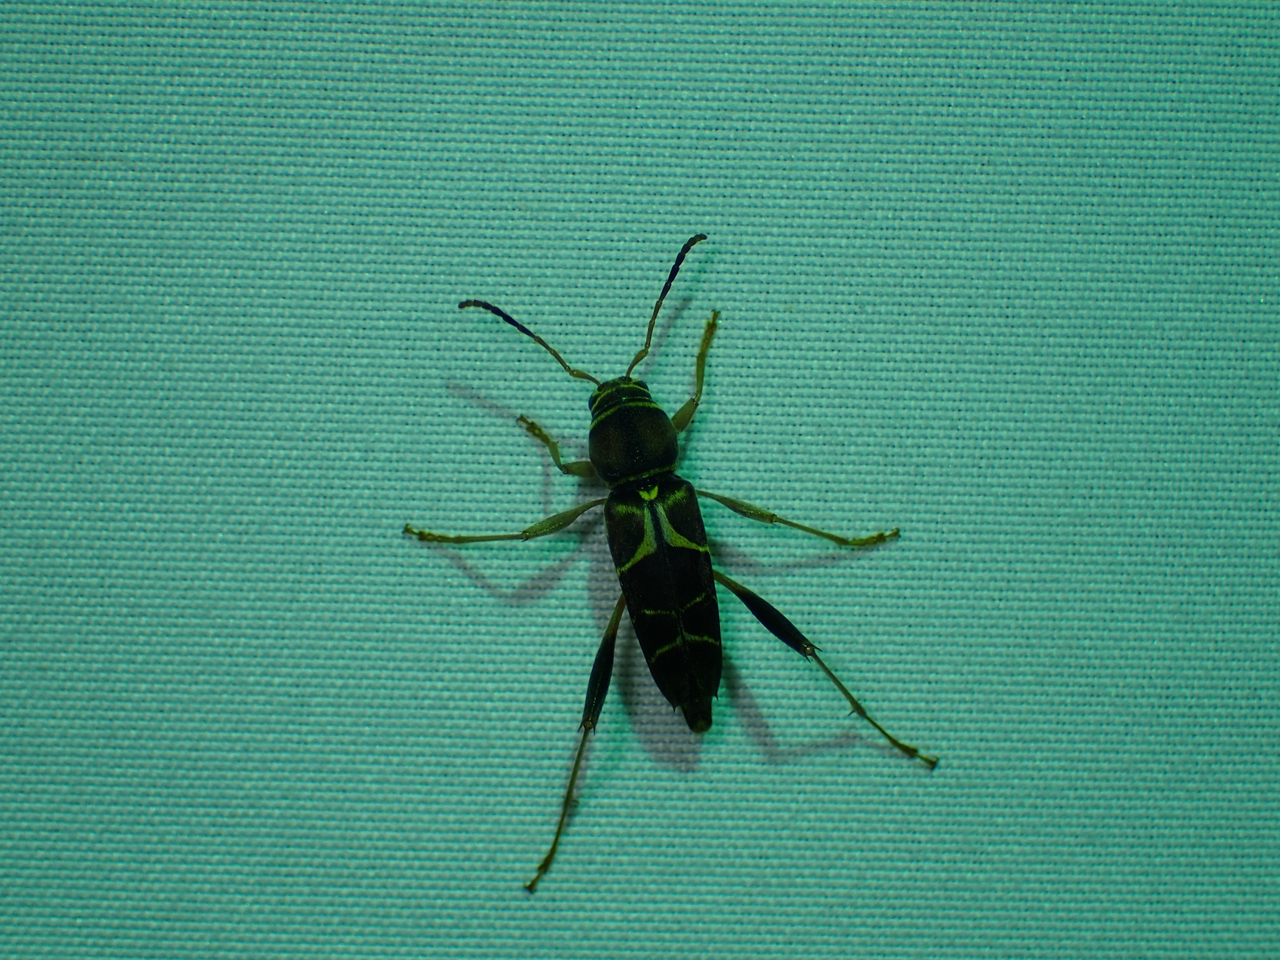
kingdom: Animalia
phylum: Arthropoda
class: Insecta
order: Coleoptera
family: Cerambycidae
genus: Neoclytus
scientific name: Neoclytus mucronatus
